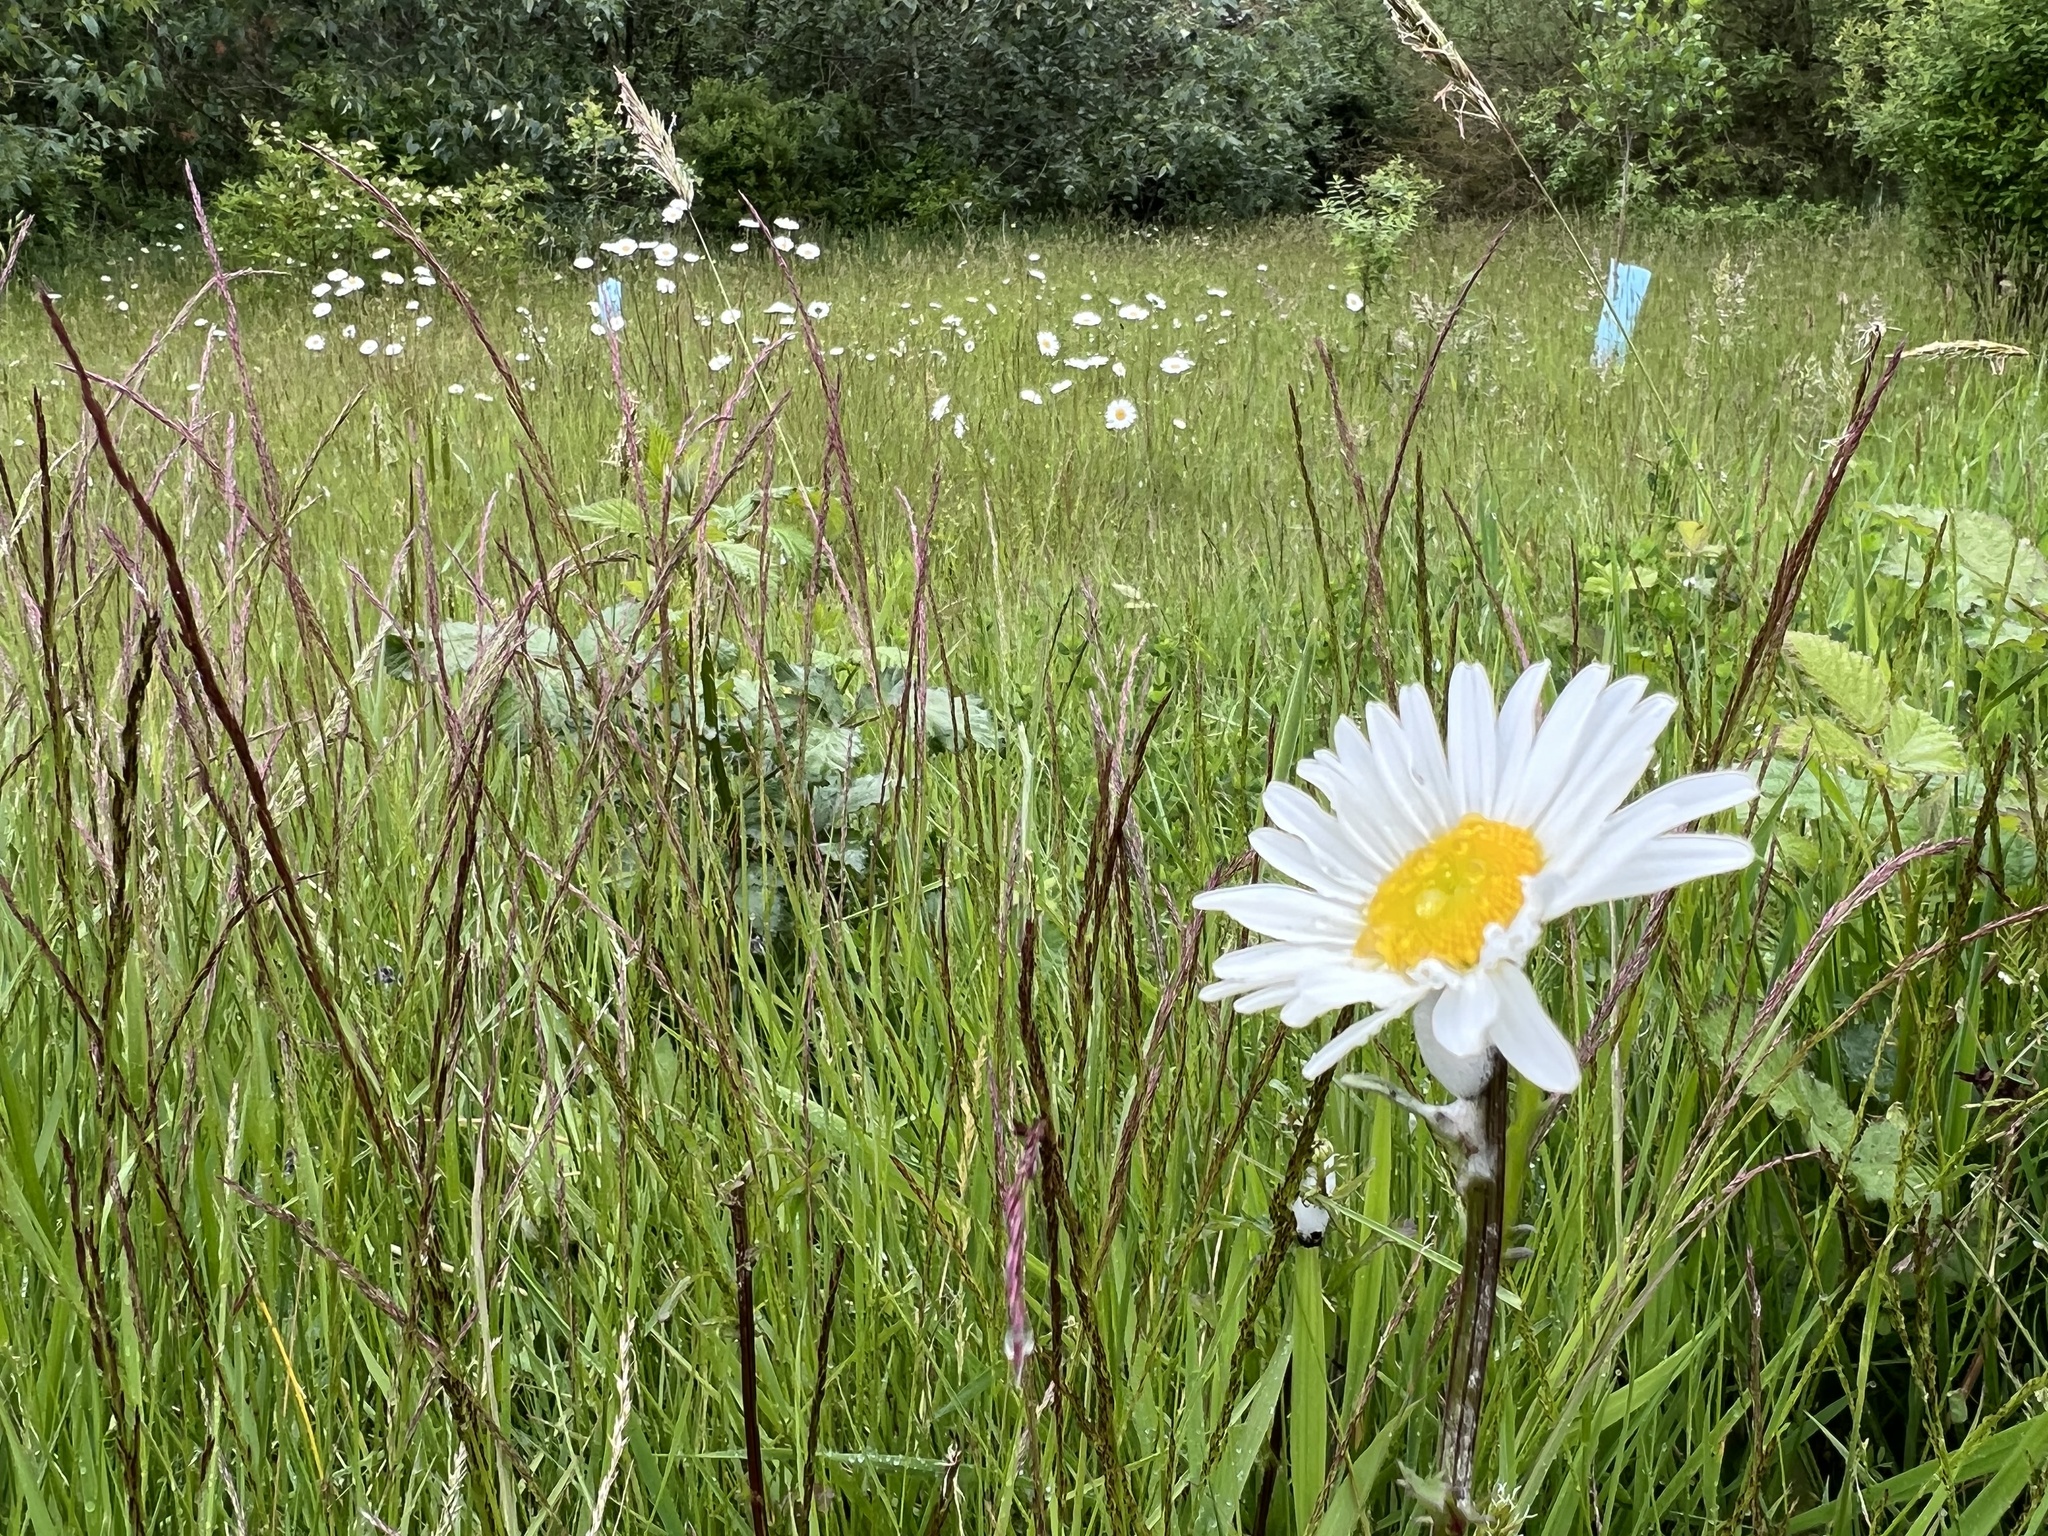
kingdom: Plantae
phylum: Tracheophyta
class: Magnoliopsida
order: Asterales
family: Asteraceae
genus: Leucanthemum
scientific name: Leucanthemum vulgare
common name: Oxeye daisy
